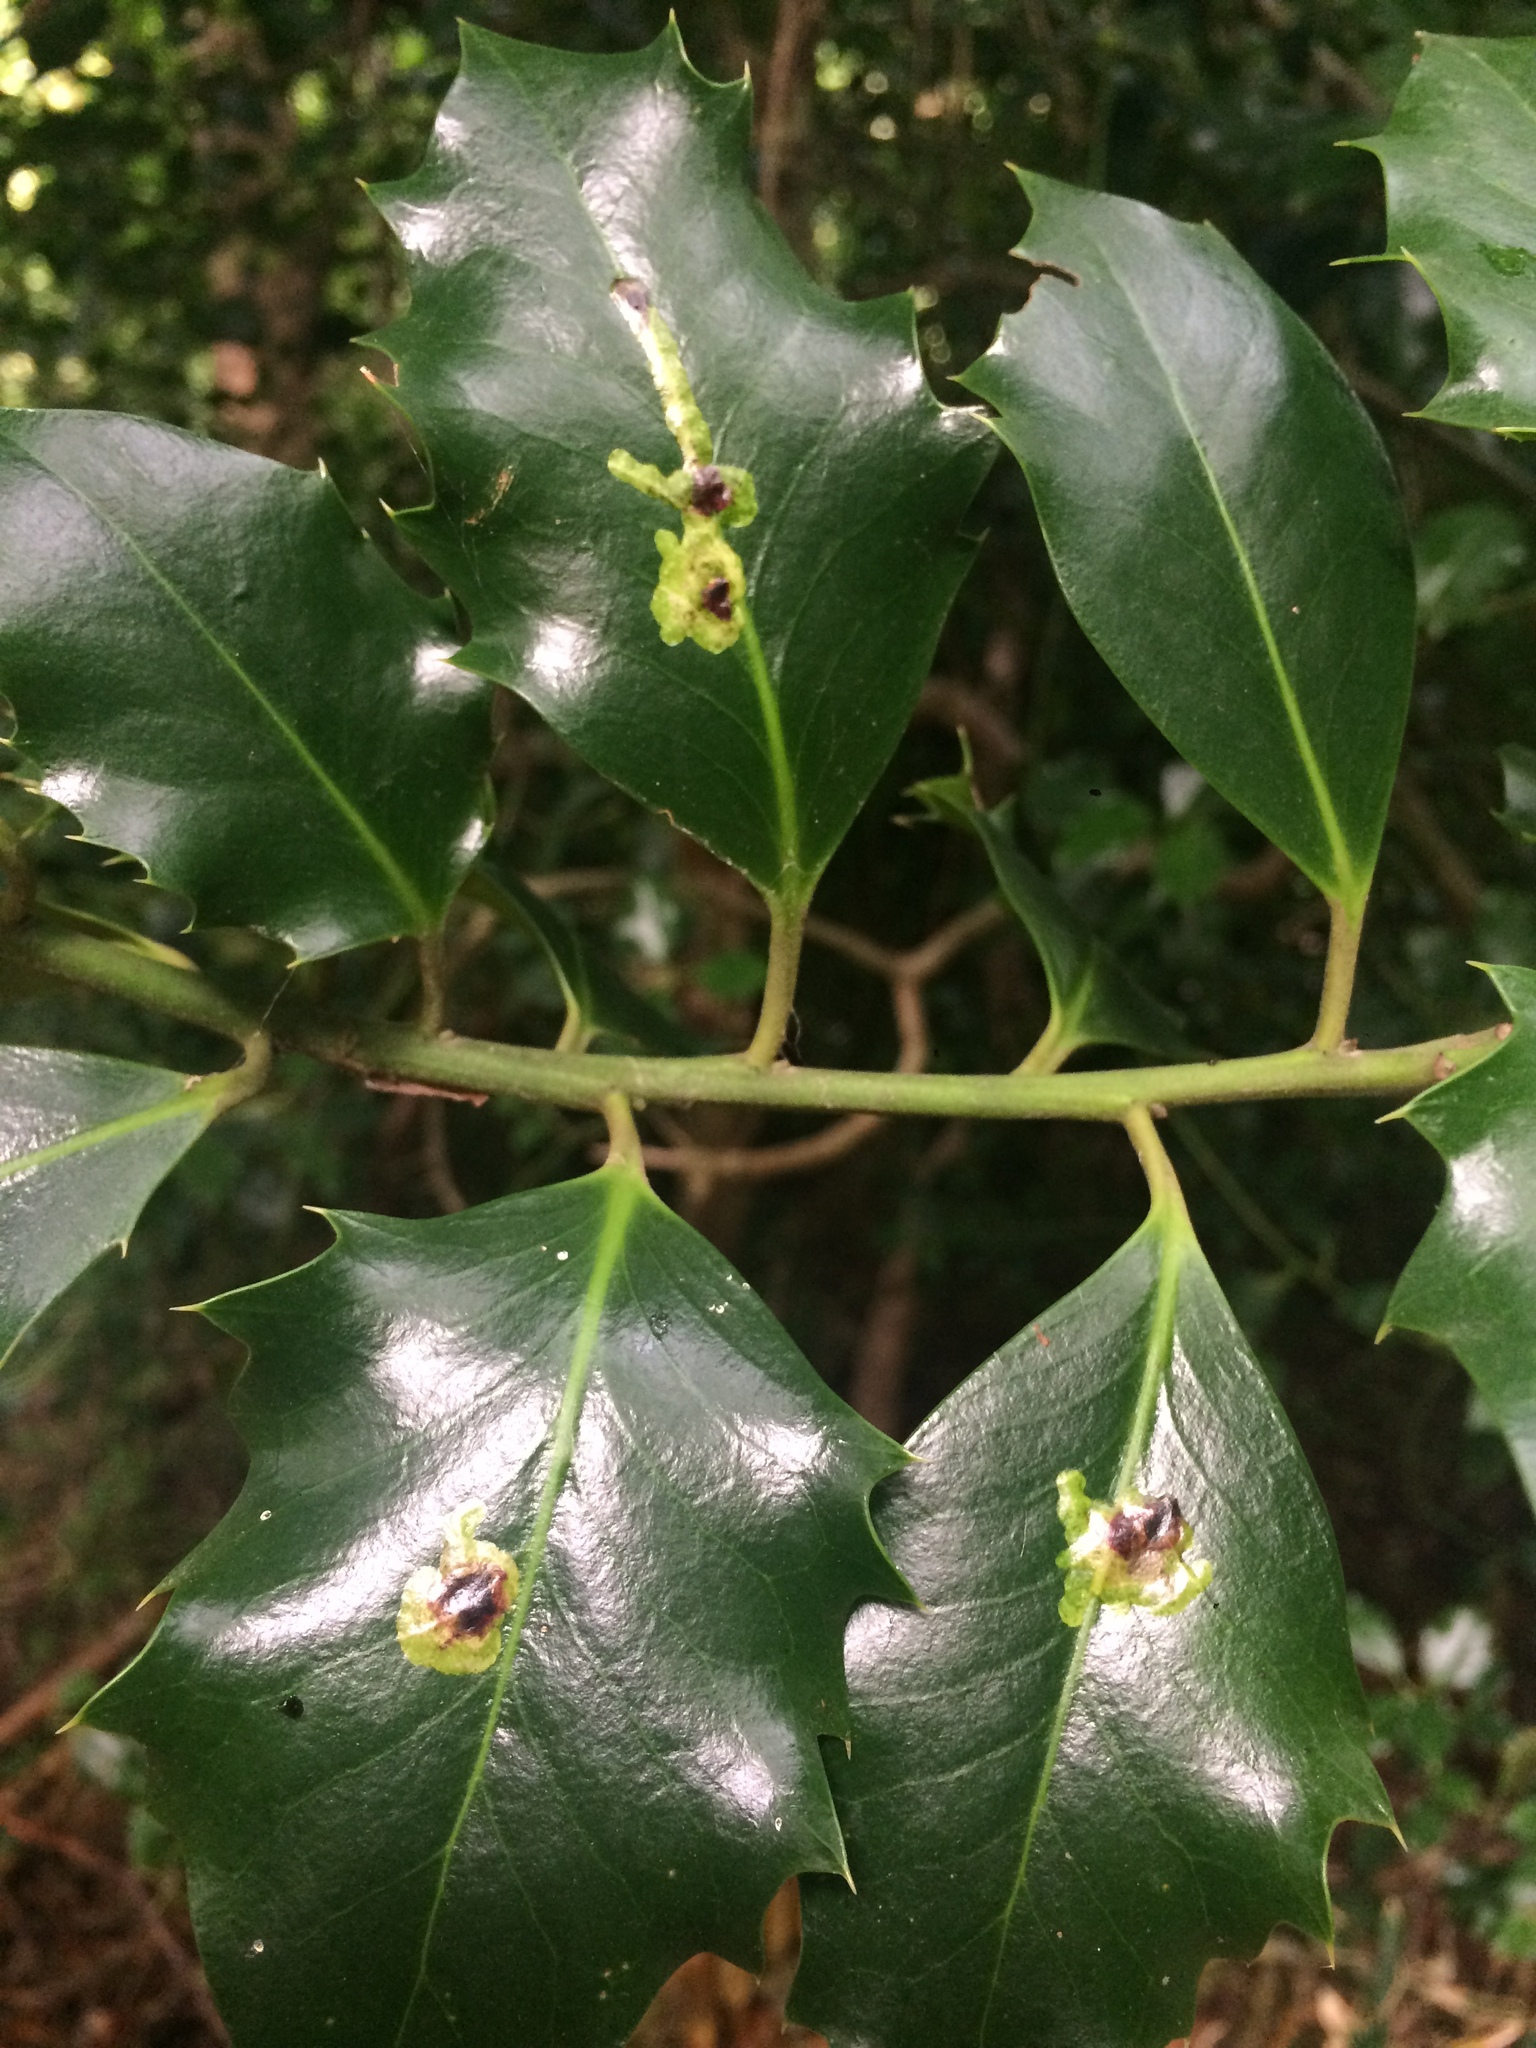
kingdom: Animalia
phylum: Arthropoda
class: Insecta
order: Diptera
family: Agromyzidae
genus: Phytomyza
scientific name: Phytomyza ilicis
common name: Holly leafminer
